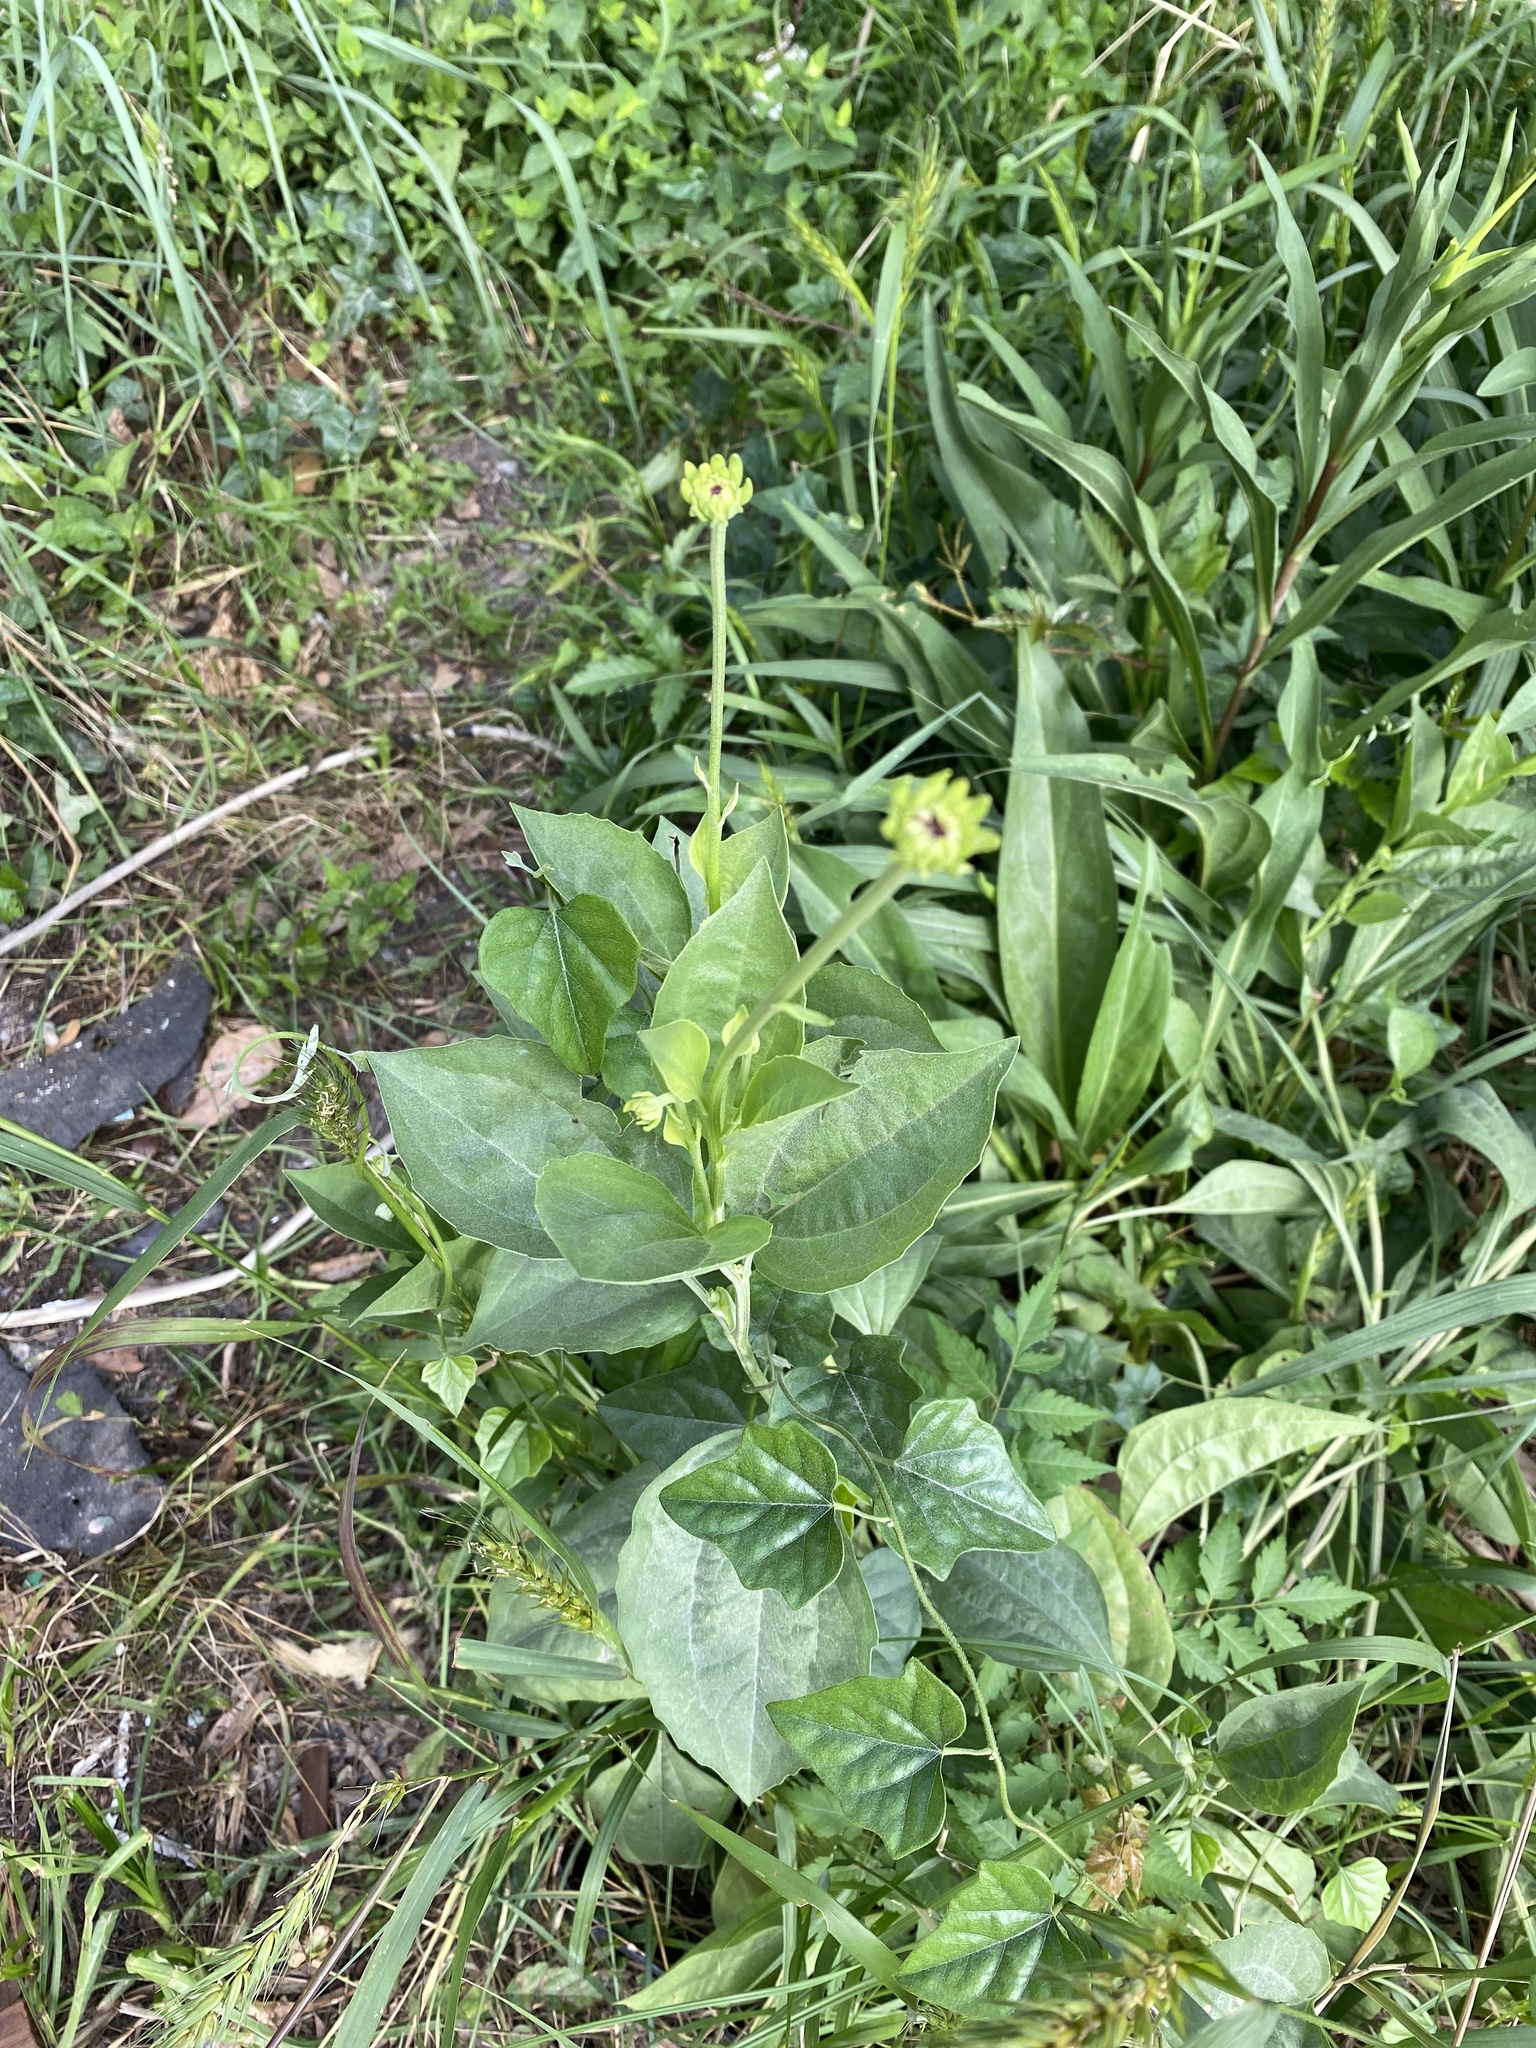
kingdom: Plantae
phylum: Tracheophyta
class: Magnoliopsida
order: Asterales
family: Asteraceae
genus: Rudbeckia
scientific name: Rudbeckia grandiflora
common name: Large-flowered coneflower
